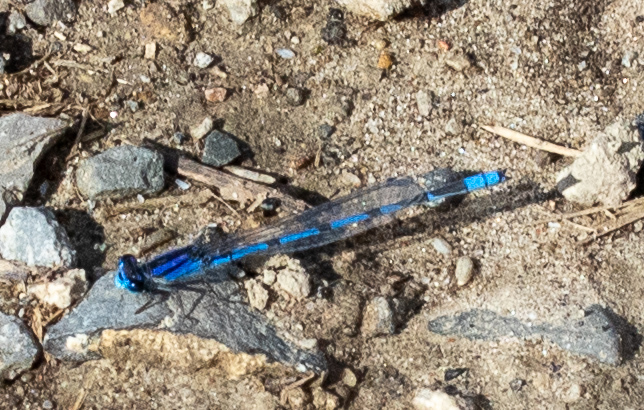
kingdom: Animalia
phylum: Arthropoda
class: Insecta
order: Odonata
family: Coenagrionidae
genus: Enallagma
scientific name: Enallagma civile
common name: Damselfly
